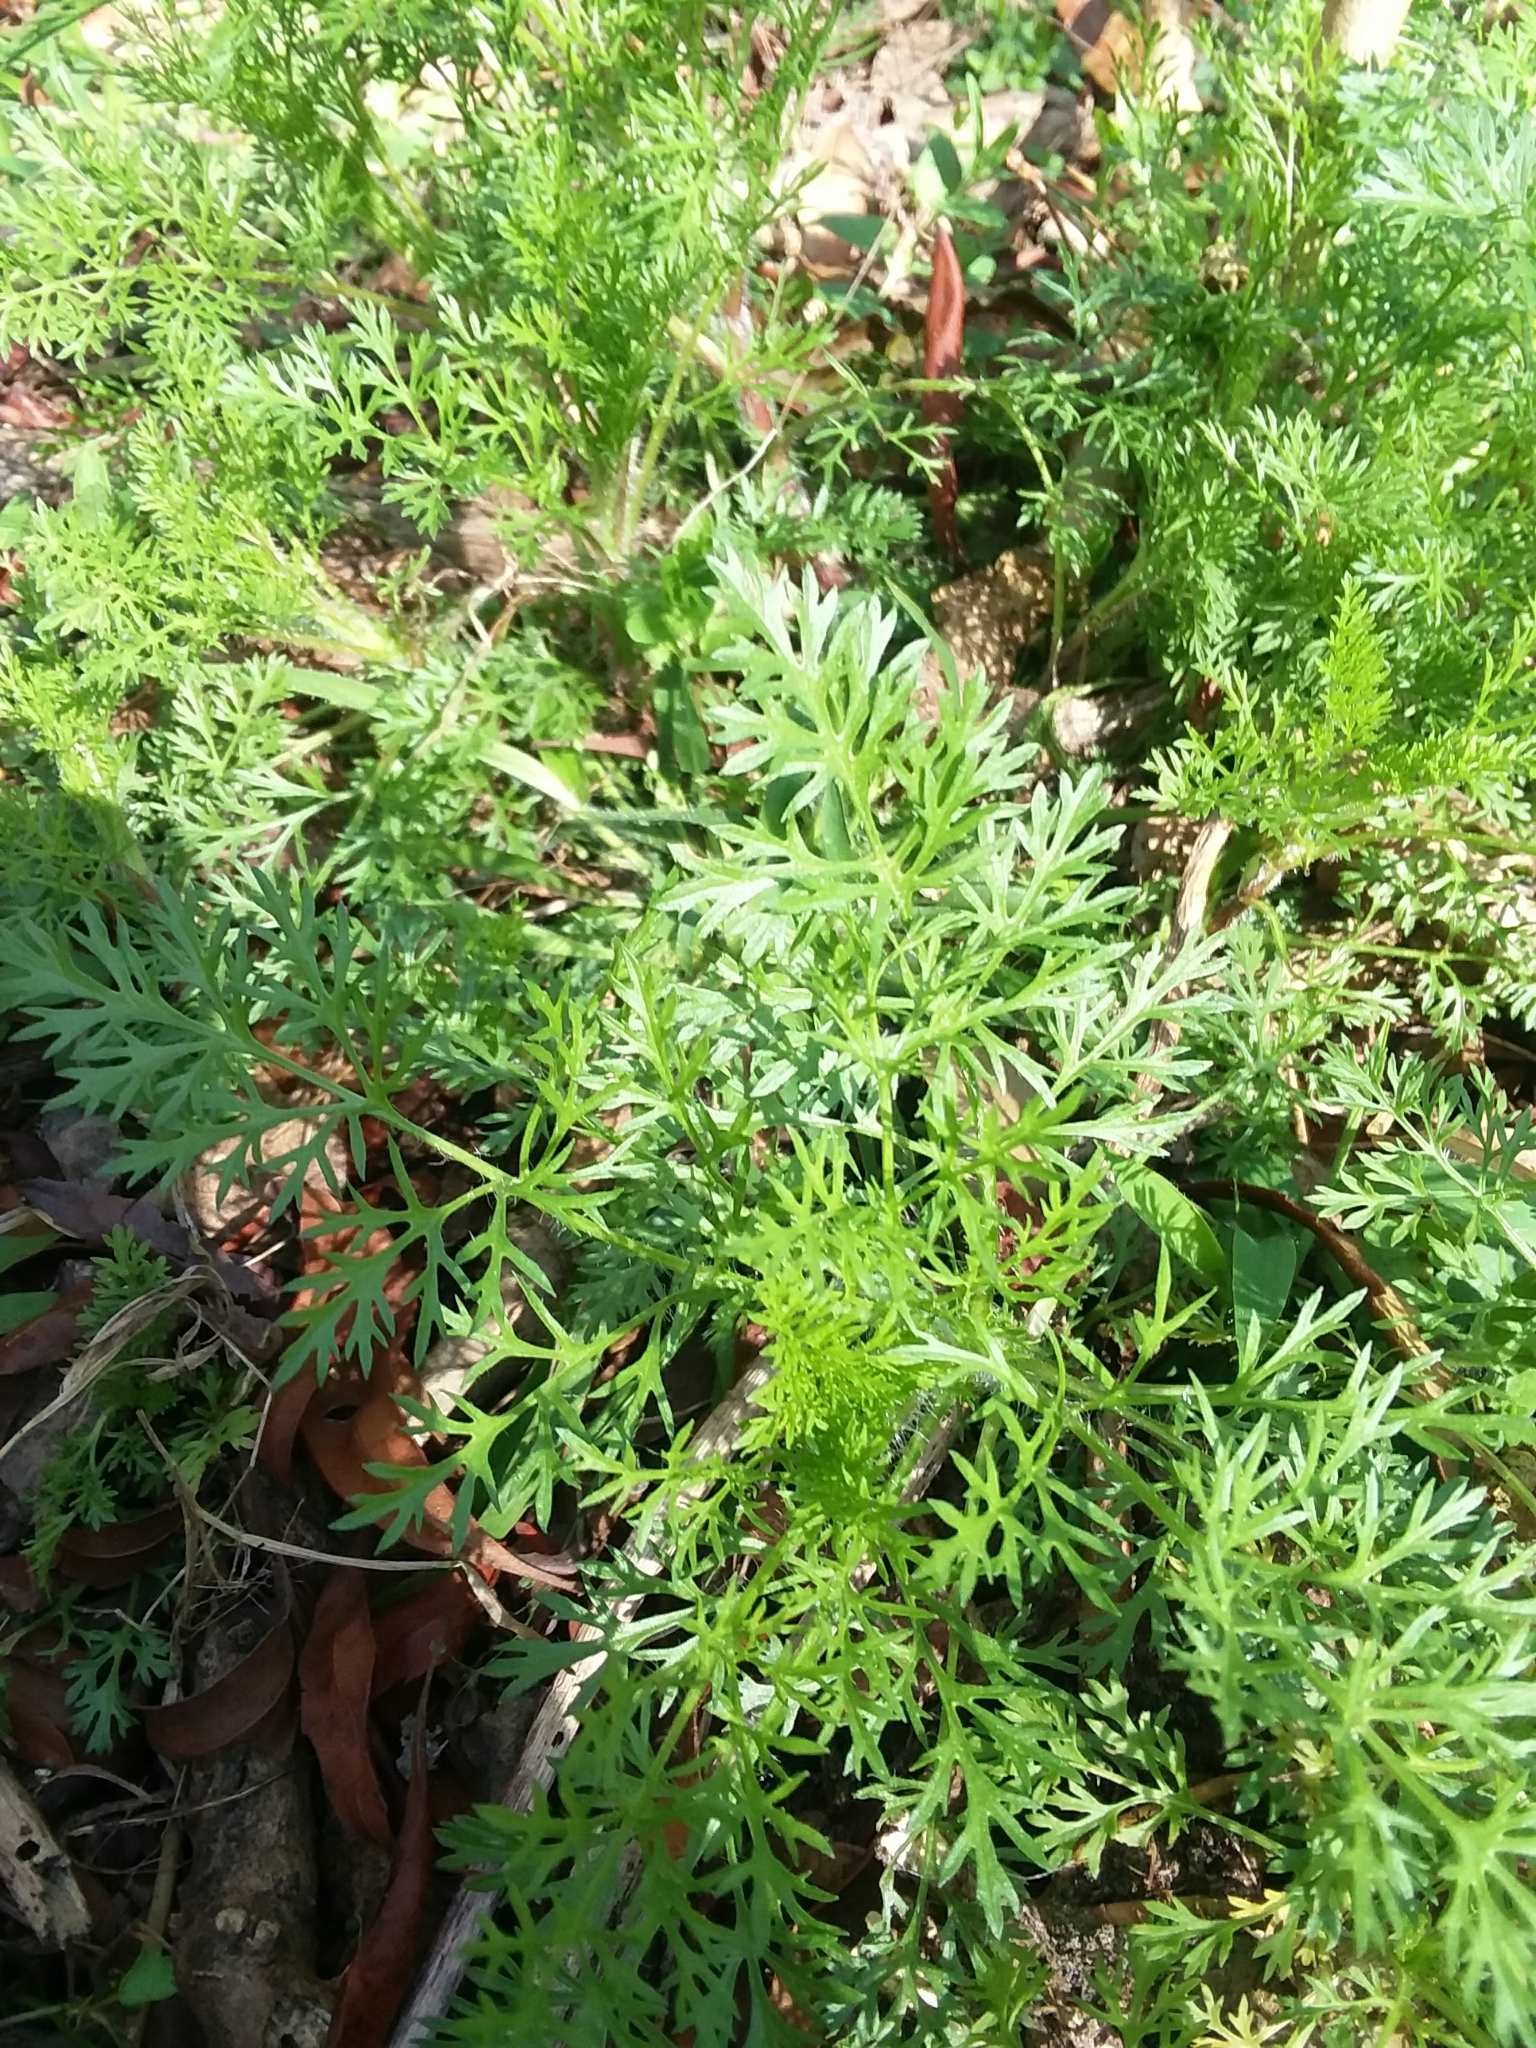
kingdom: Plantae
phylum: Tracheophyta
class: Magnoliopsida
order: Asterales
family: Asteraceae
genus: Eupatorium
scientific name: Eupatorium capillifolium
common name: Dog-fennel
